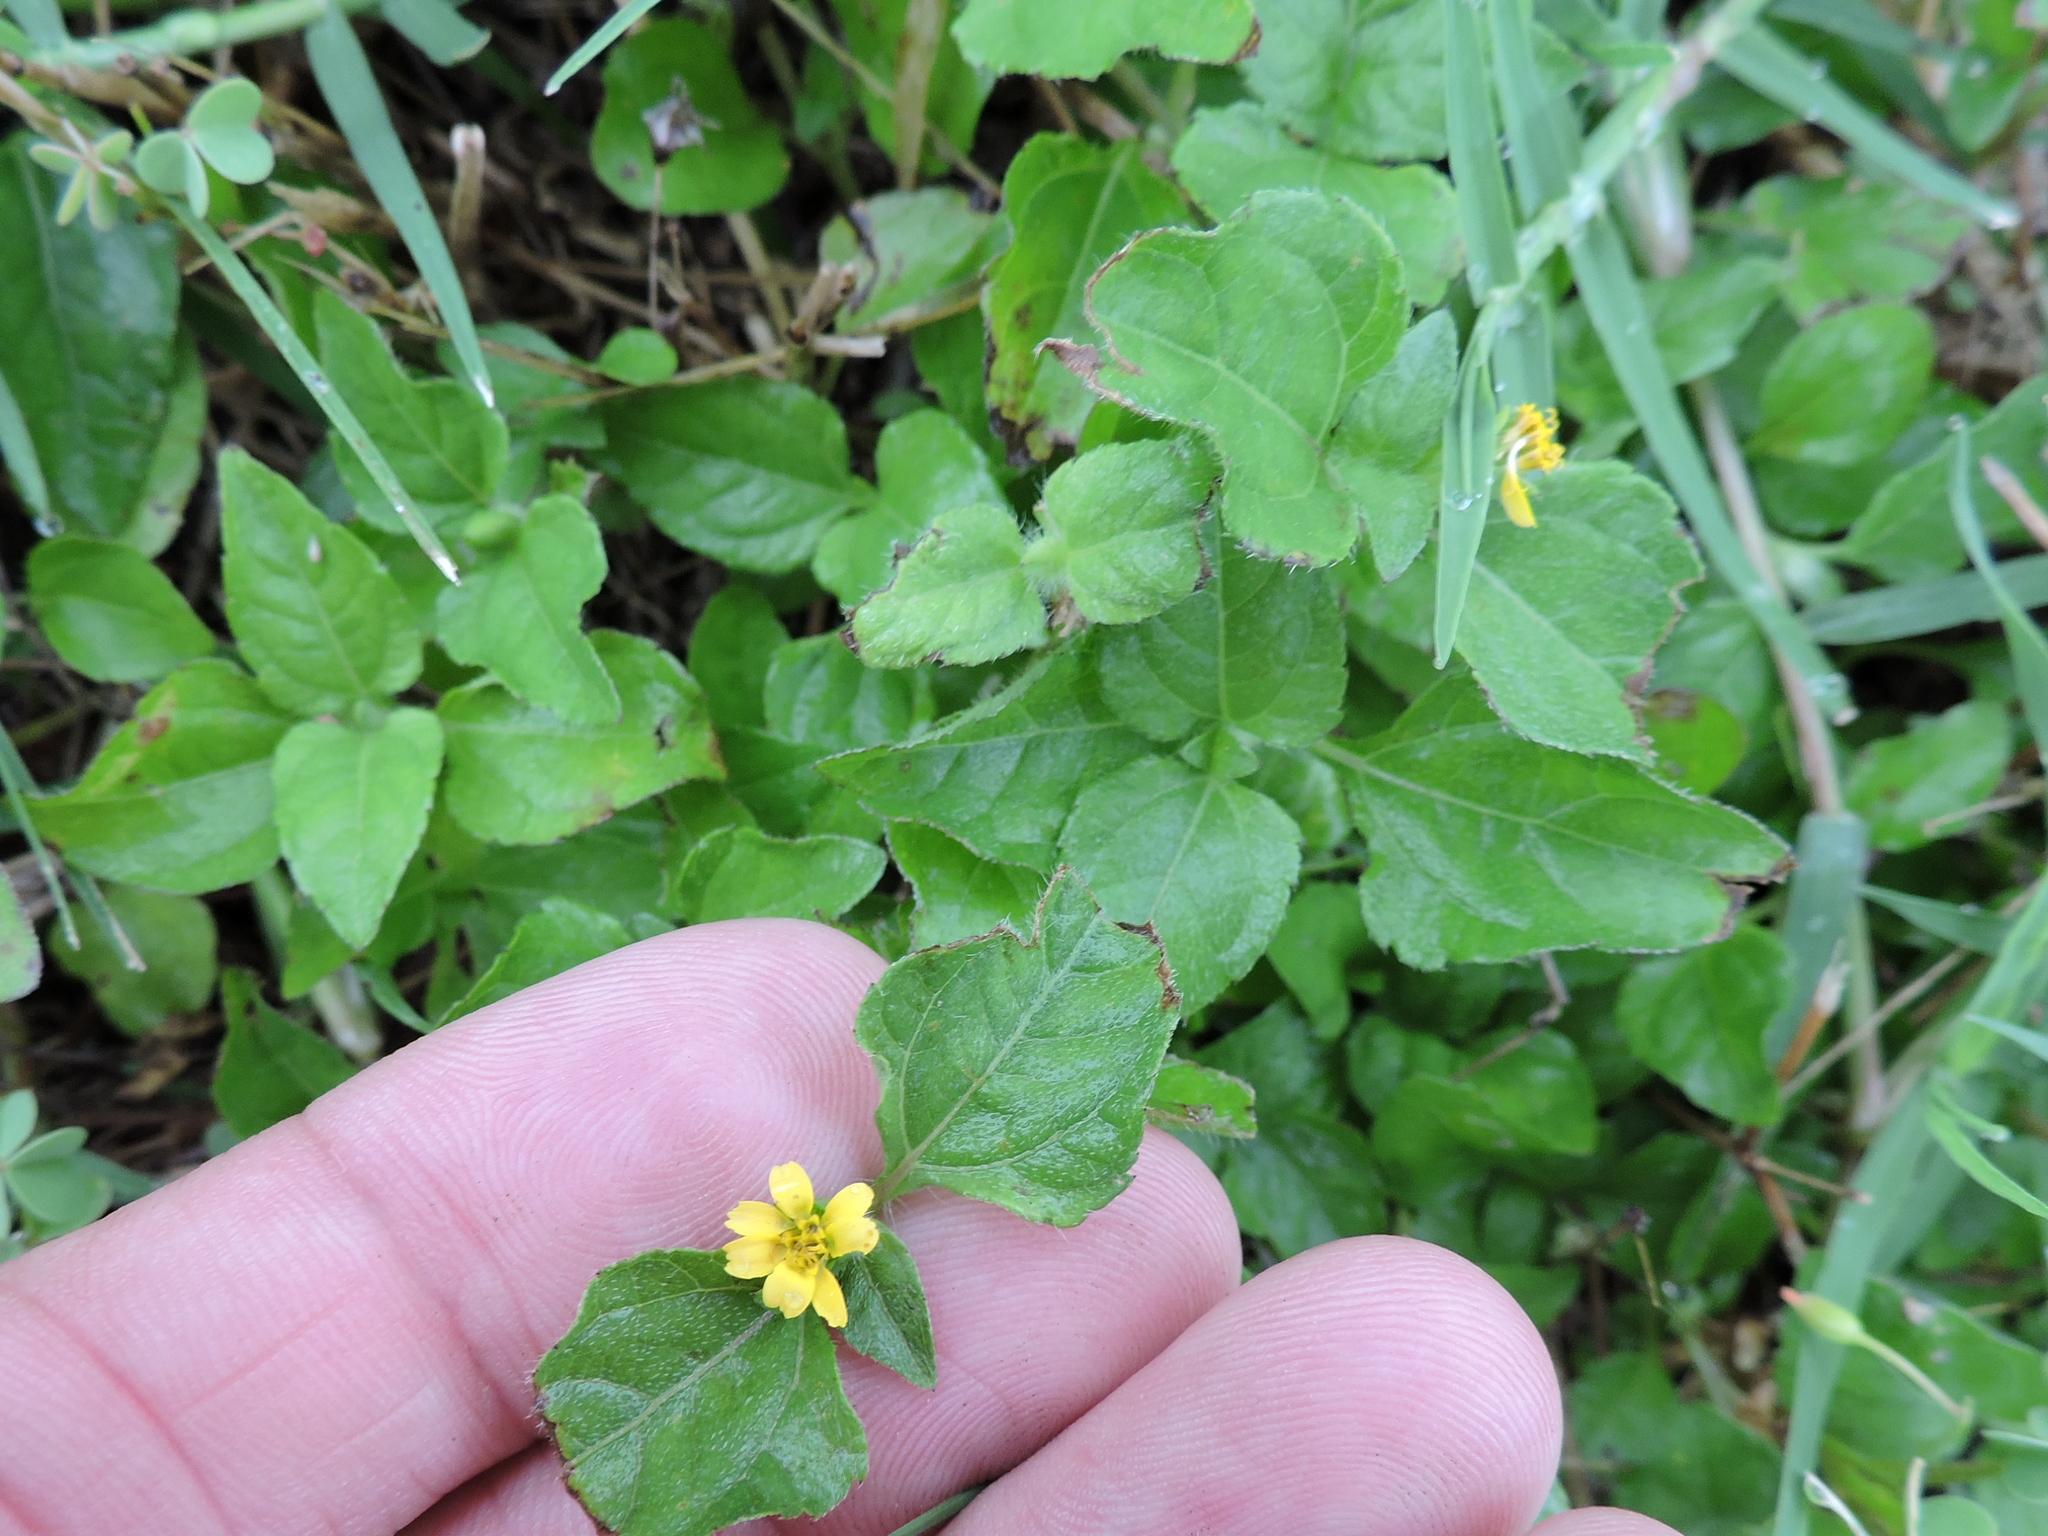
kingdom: Plantae
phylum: Tracheophyta
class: Magnoliopsida
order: Asterales
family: Asteraceae
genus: Calyptocarpus
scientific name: Calyptocarpus vialis
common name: Straggler daisy
